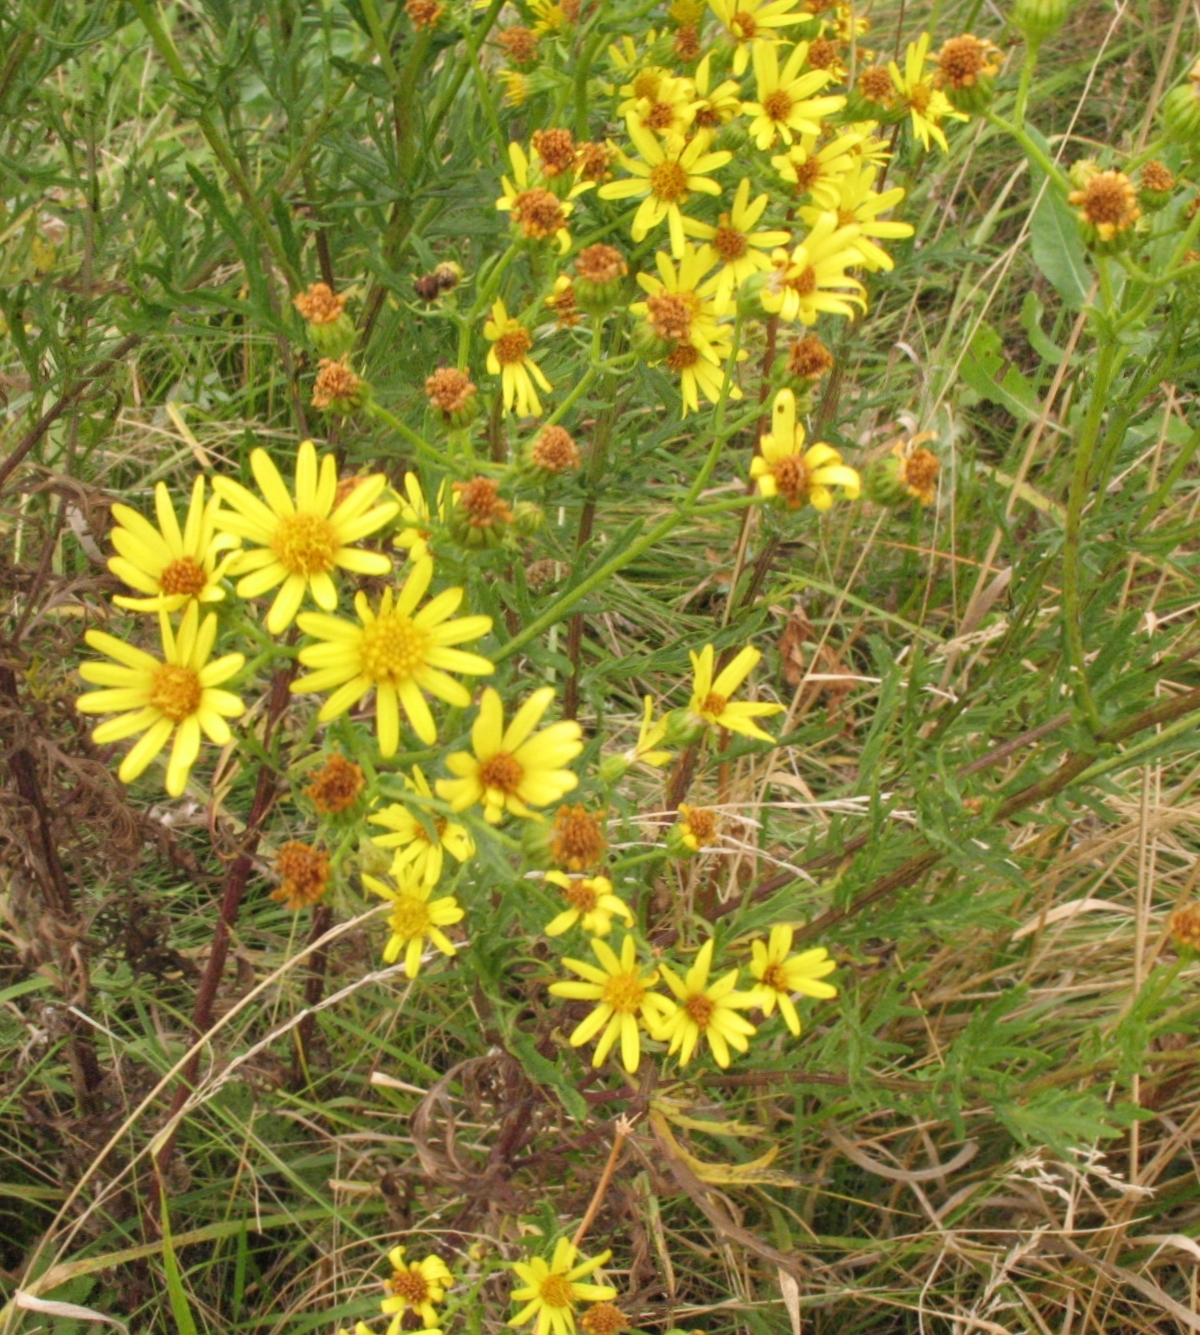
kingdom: Plantae
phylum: Tracheophyta
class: Magnoliopsida
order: Asterales
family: Asteraceae
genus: Jacobaea
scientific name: Jacobaea erucifolia
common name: Hoary ragwort
